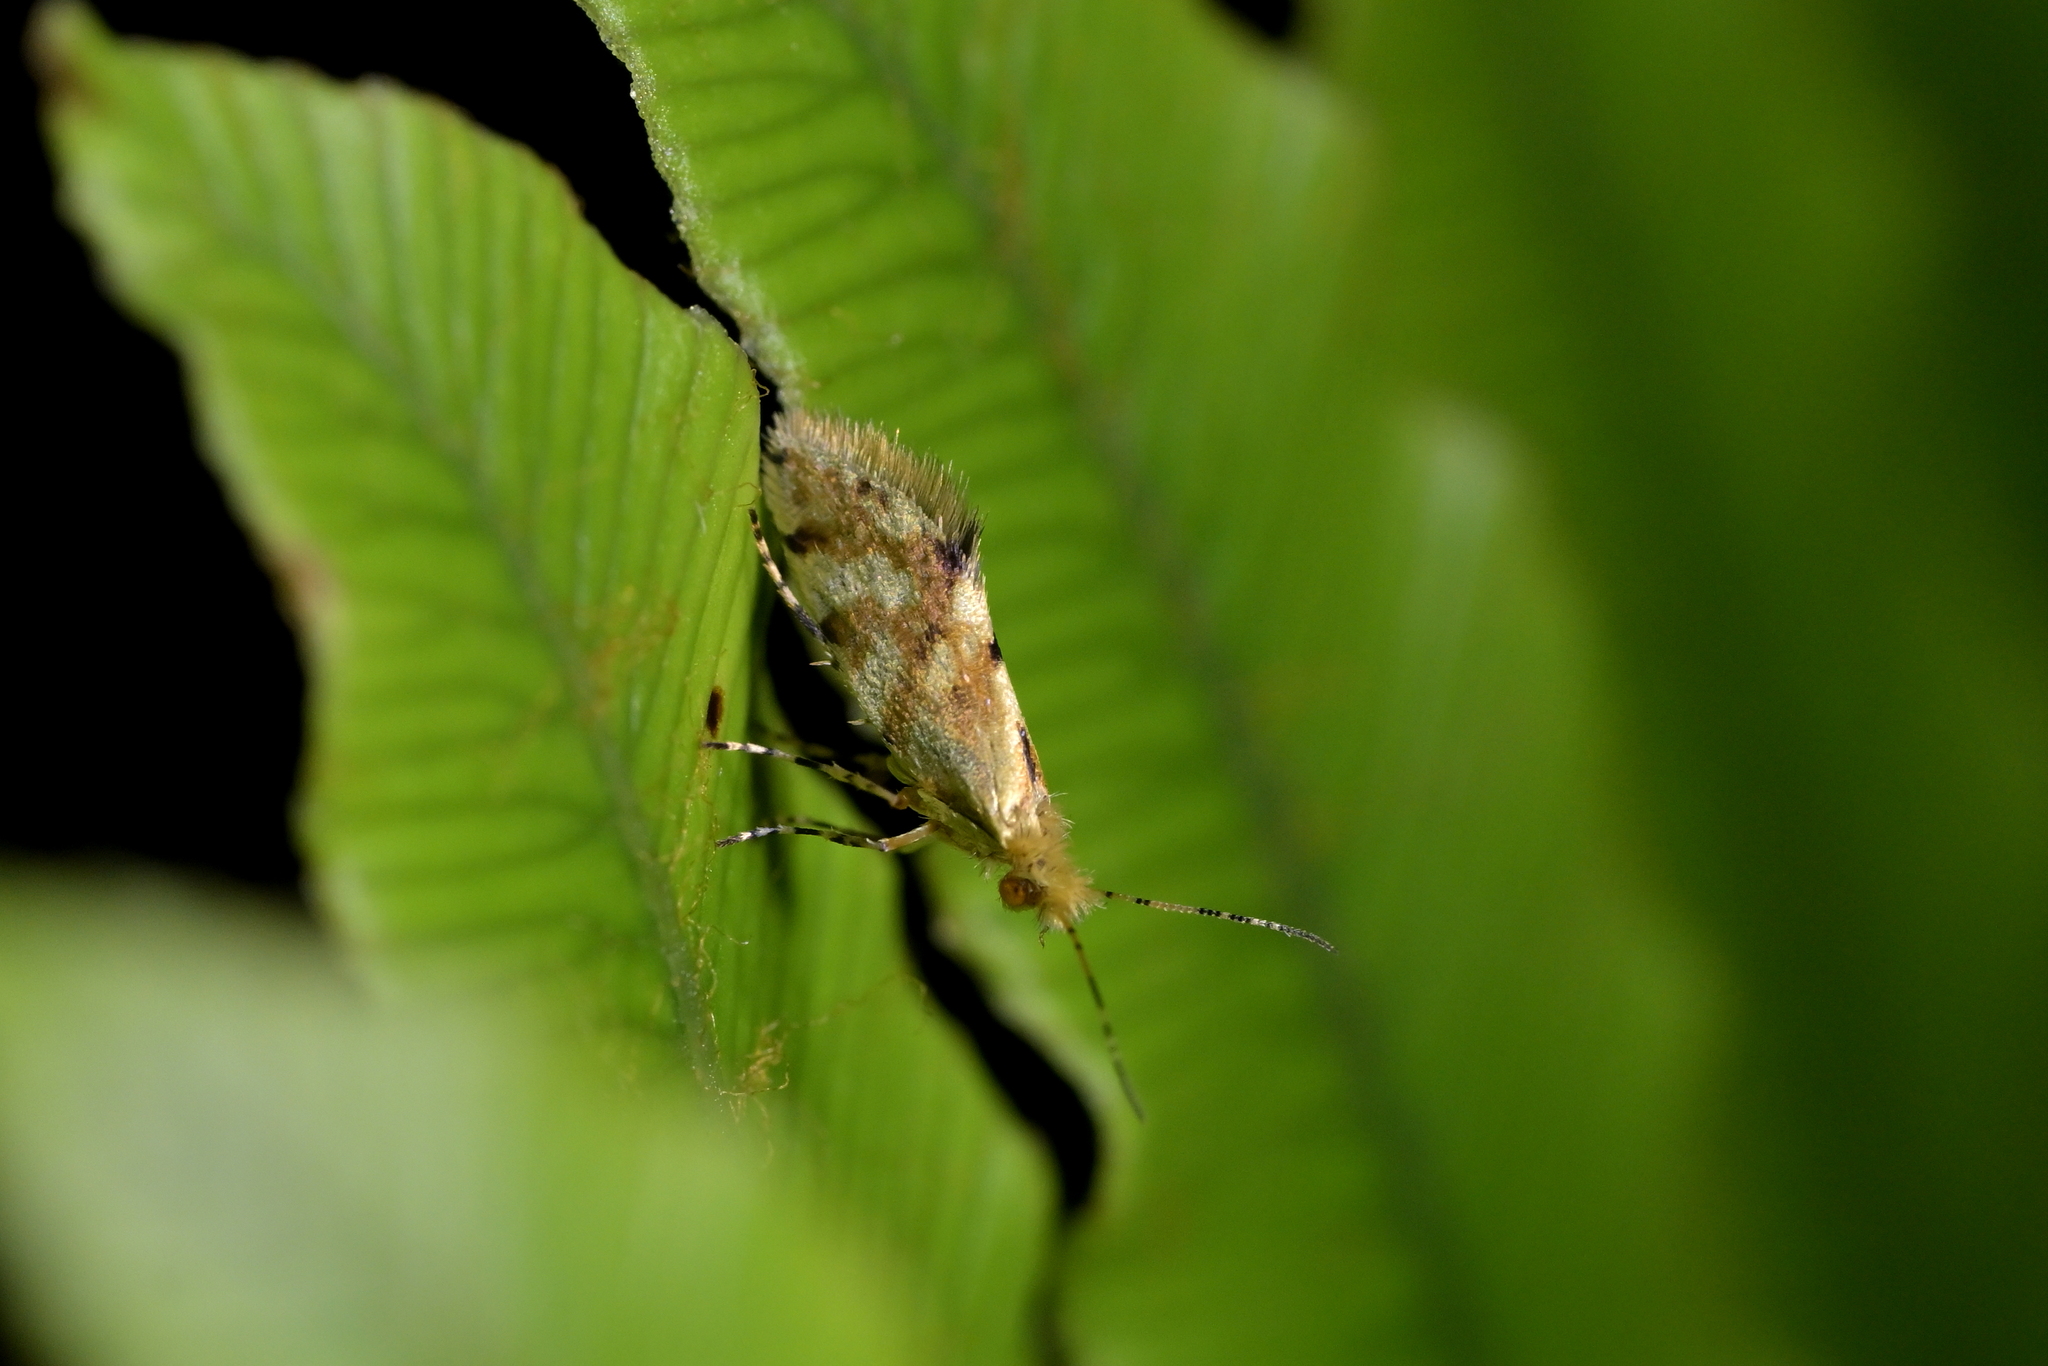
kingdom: Animalia
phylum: Arthropoda
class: Insecta
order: Lepidoptera
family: Micropterigidae
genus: Sabatinca
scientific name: Sabatinca chalcophanes
